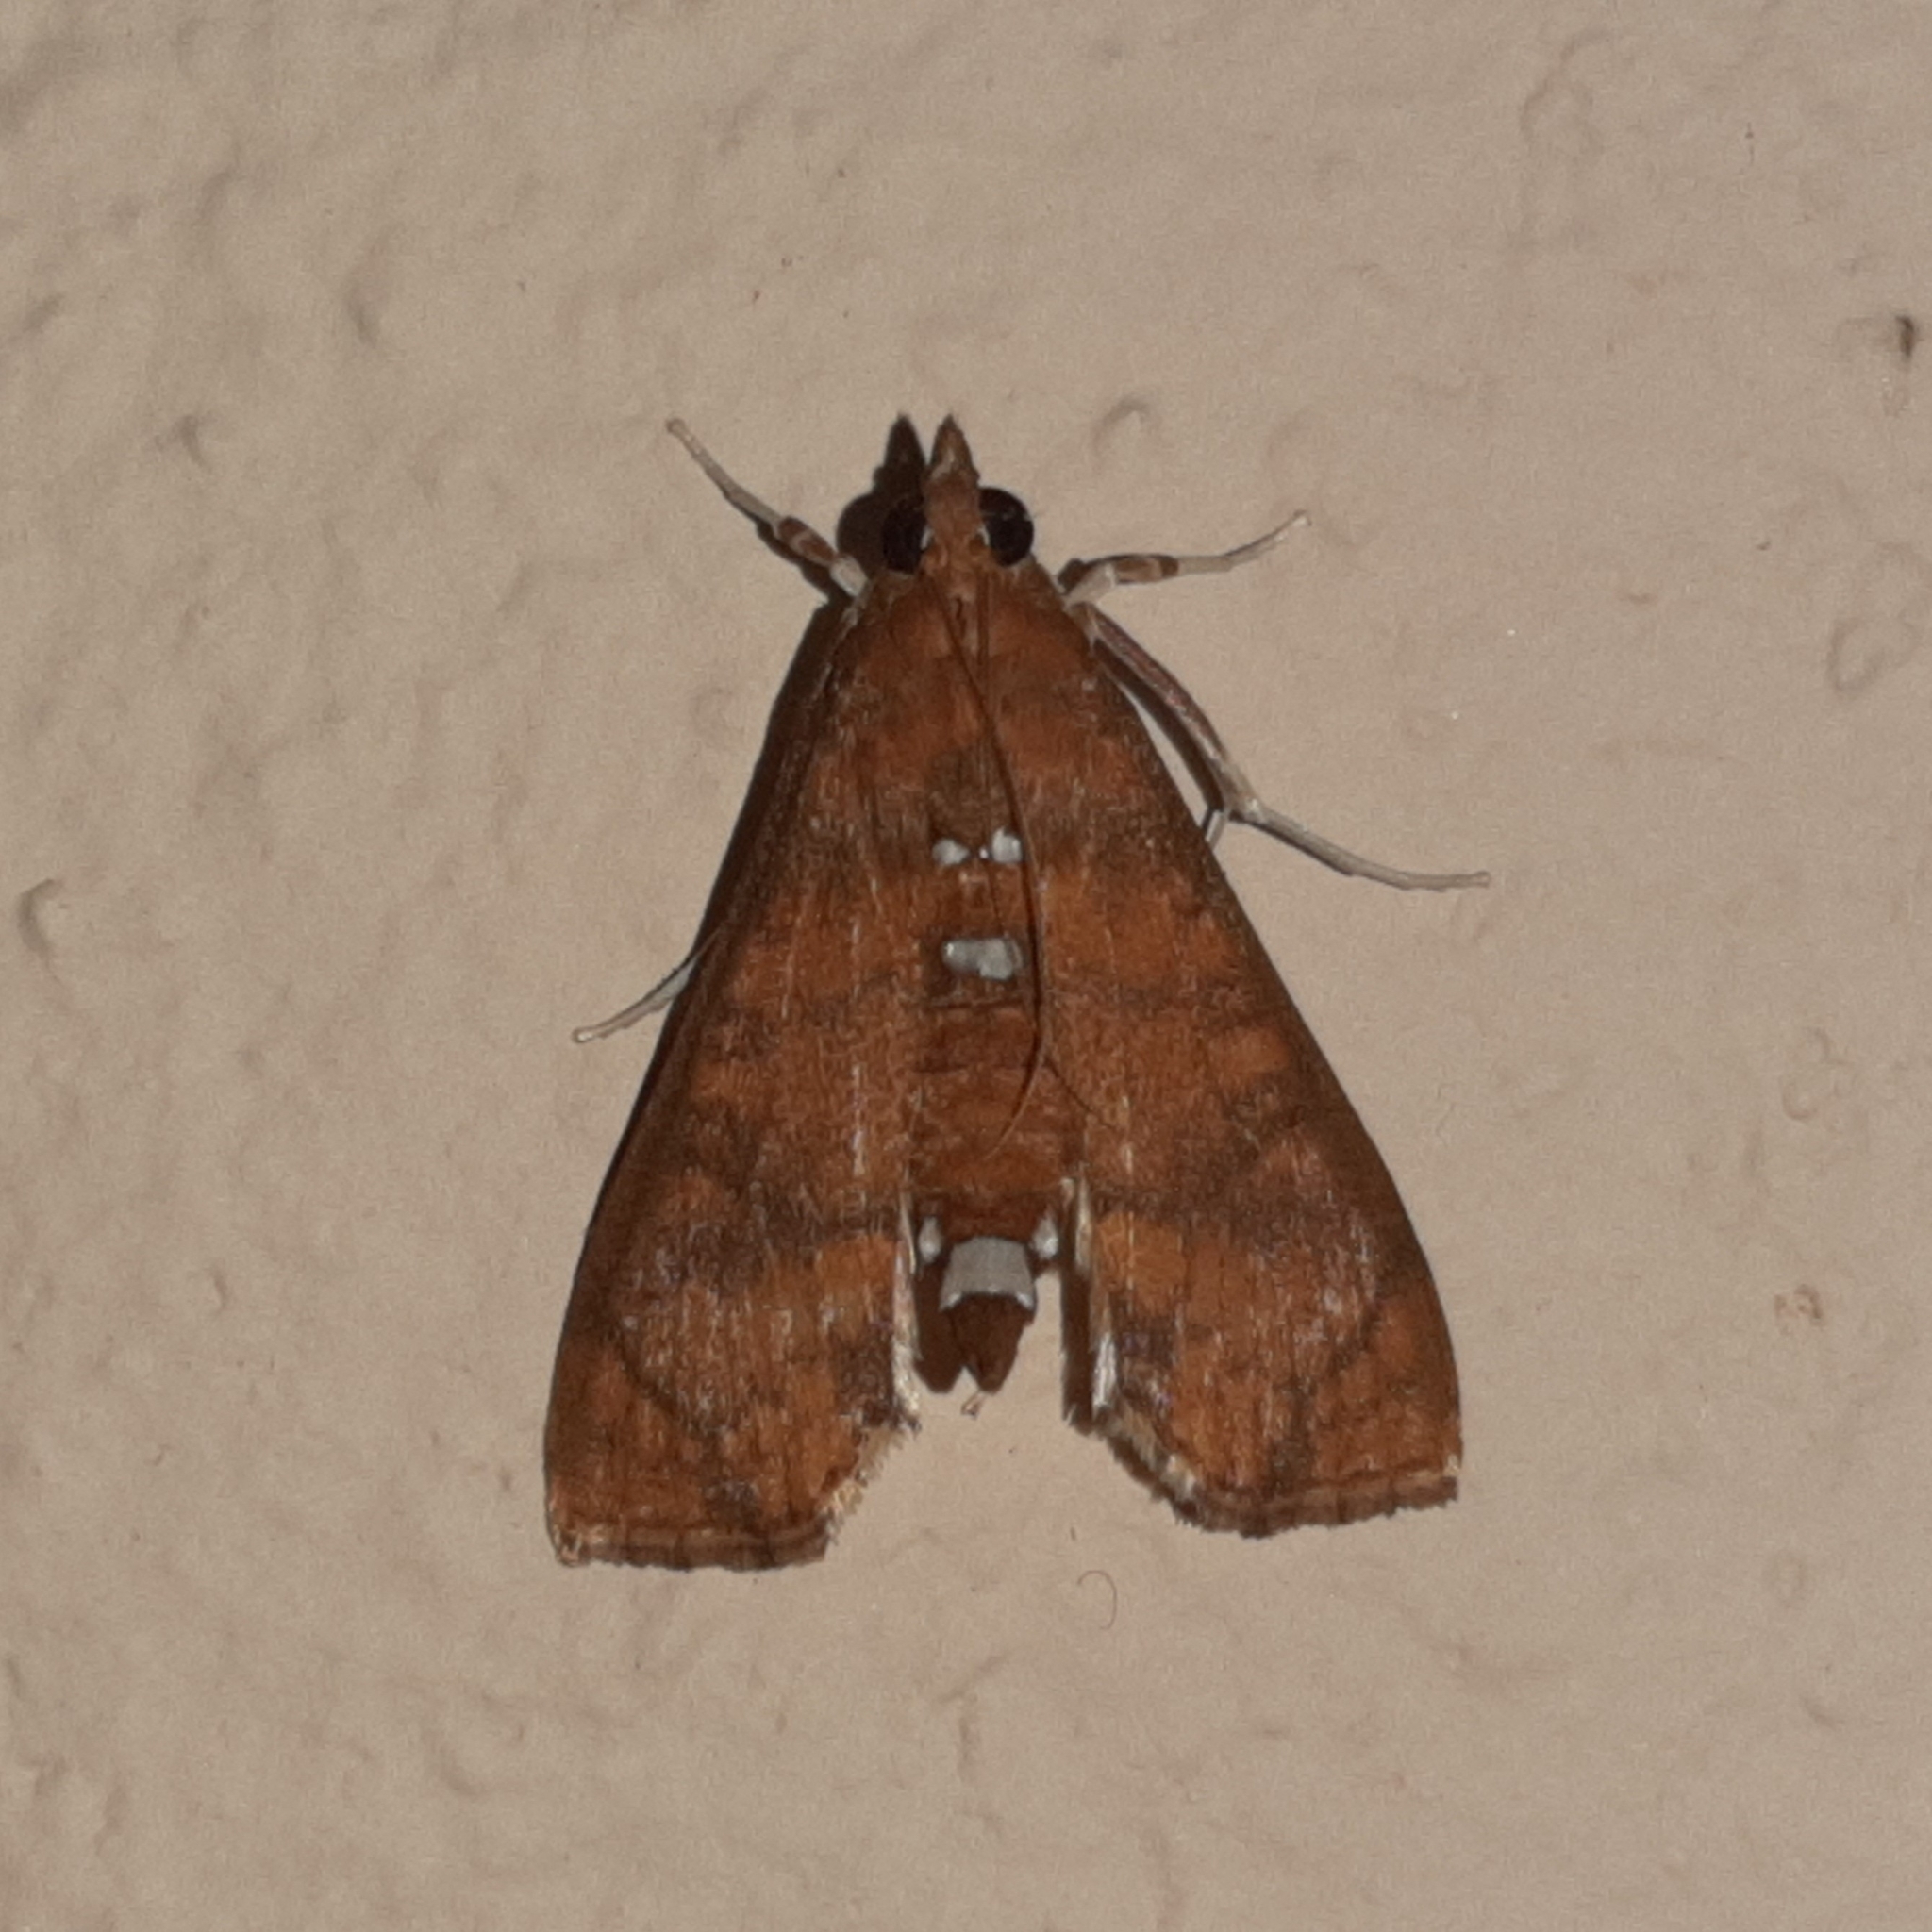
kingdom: Animalia
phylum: Arthropoda
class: Insecta
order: Lepidoptera
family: Crambidae
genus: Liopasia
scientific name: Liopasia ochracealis
